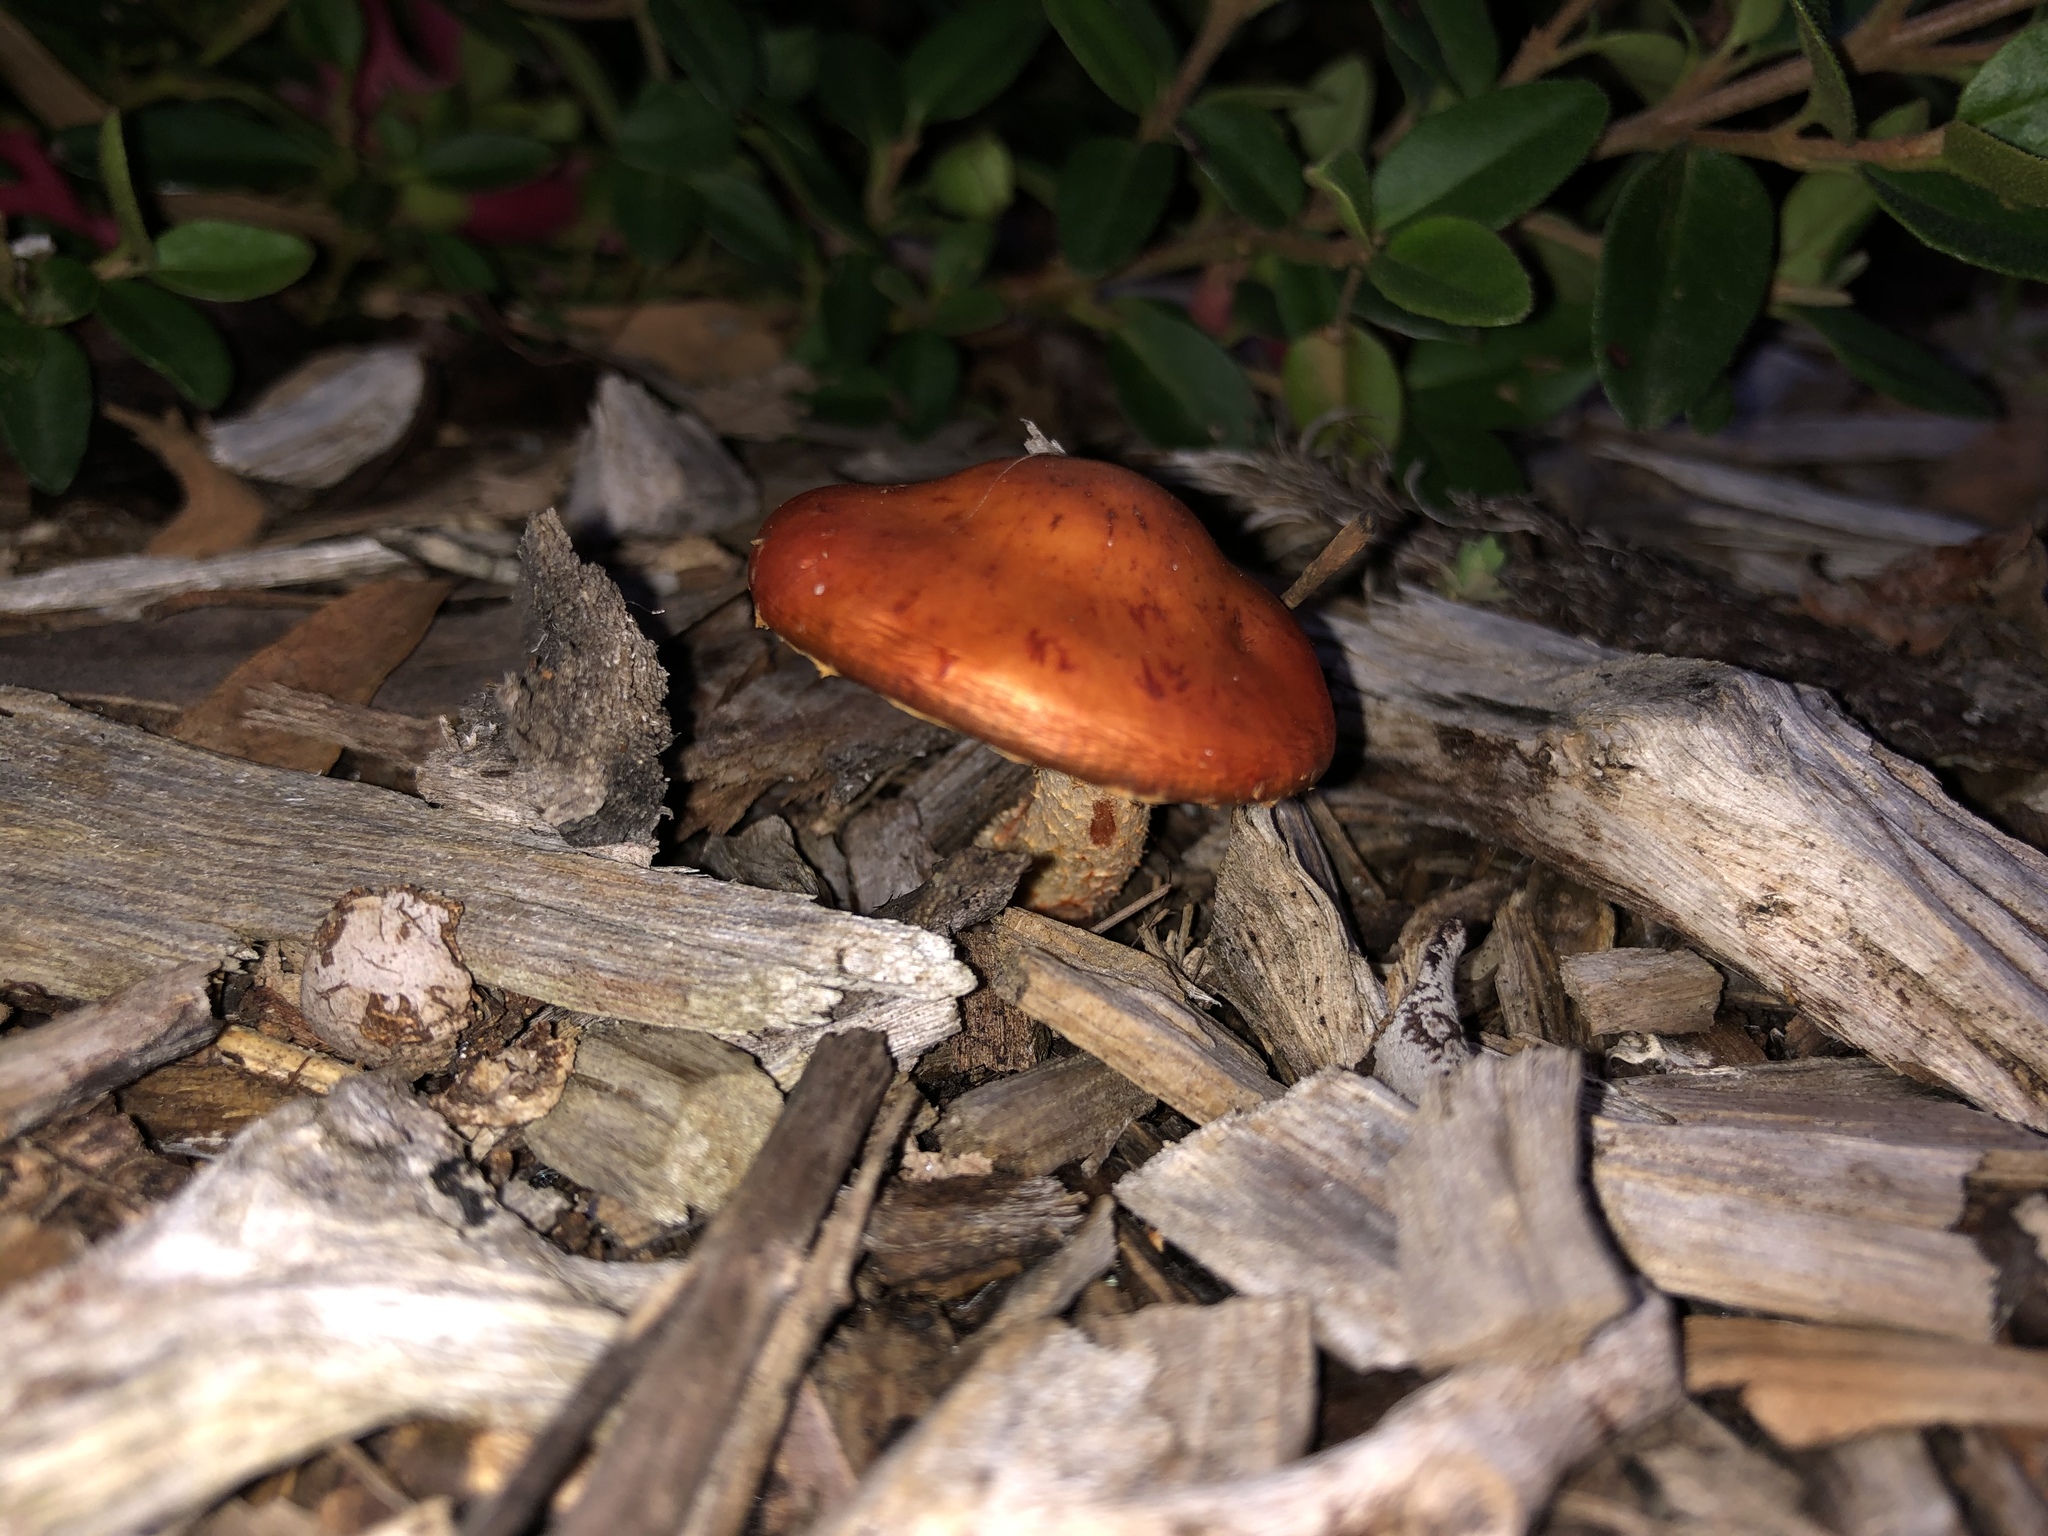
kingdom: Fungi
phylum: Basidiomycota
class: Agaricomycetes
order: Agaricales
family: Strophariaceae
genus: Leratiomyces
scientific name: Leratiomyces ceres
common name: Redlead roundhead
